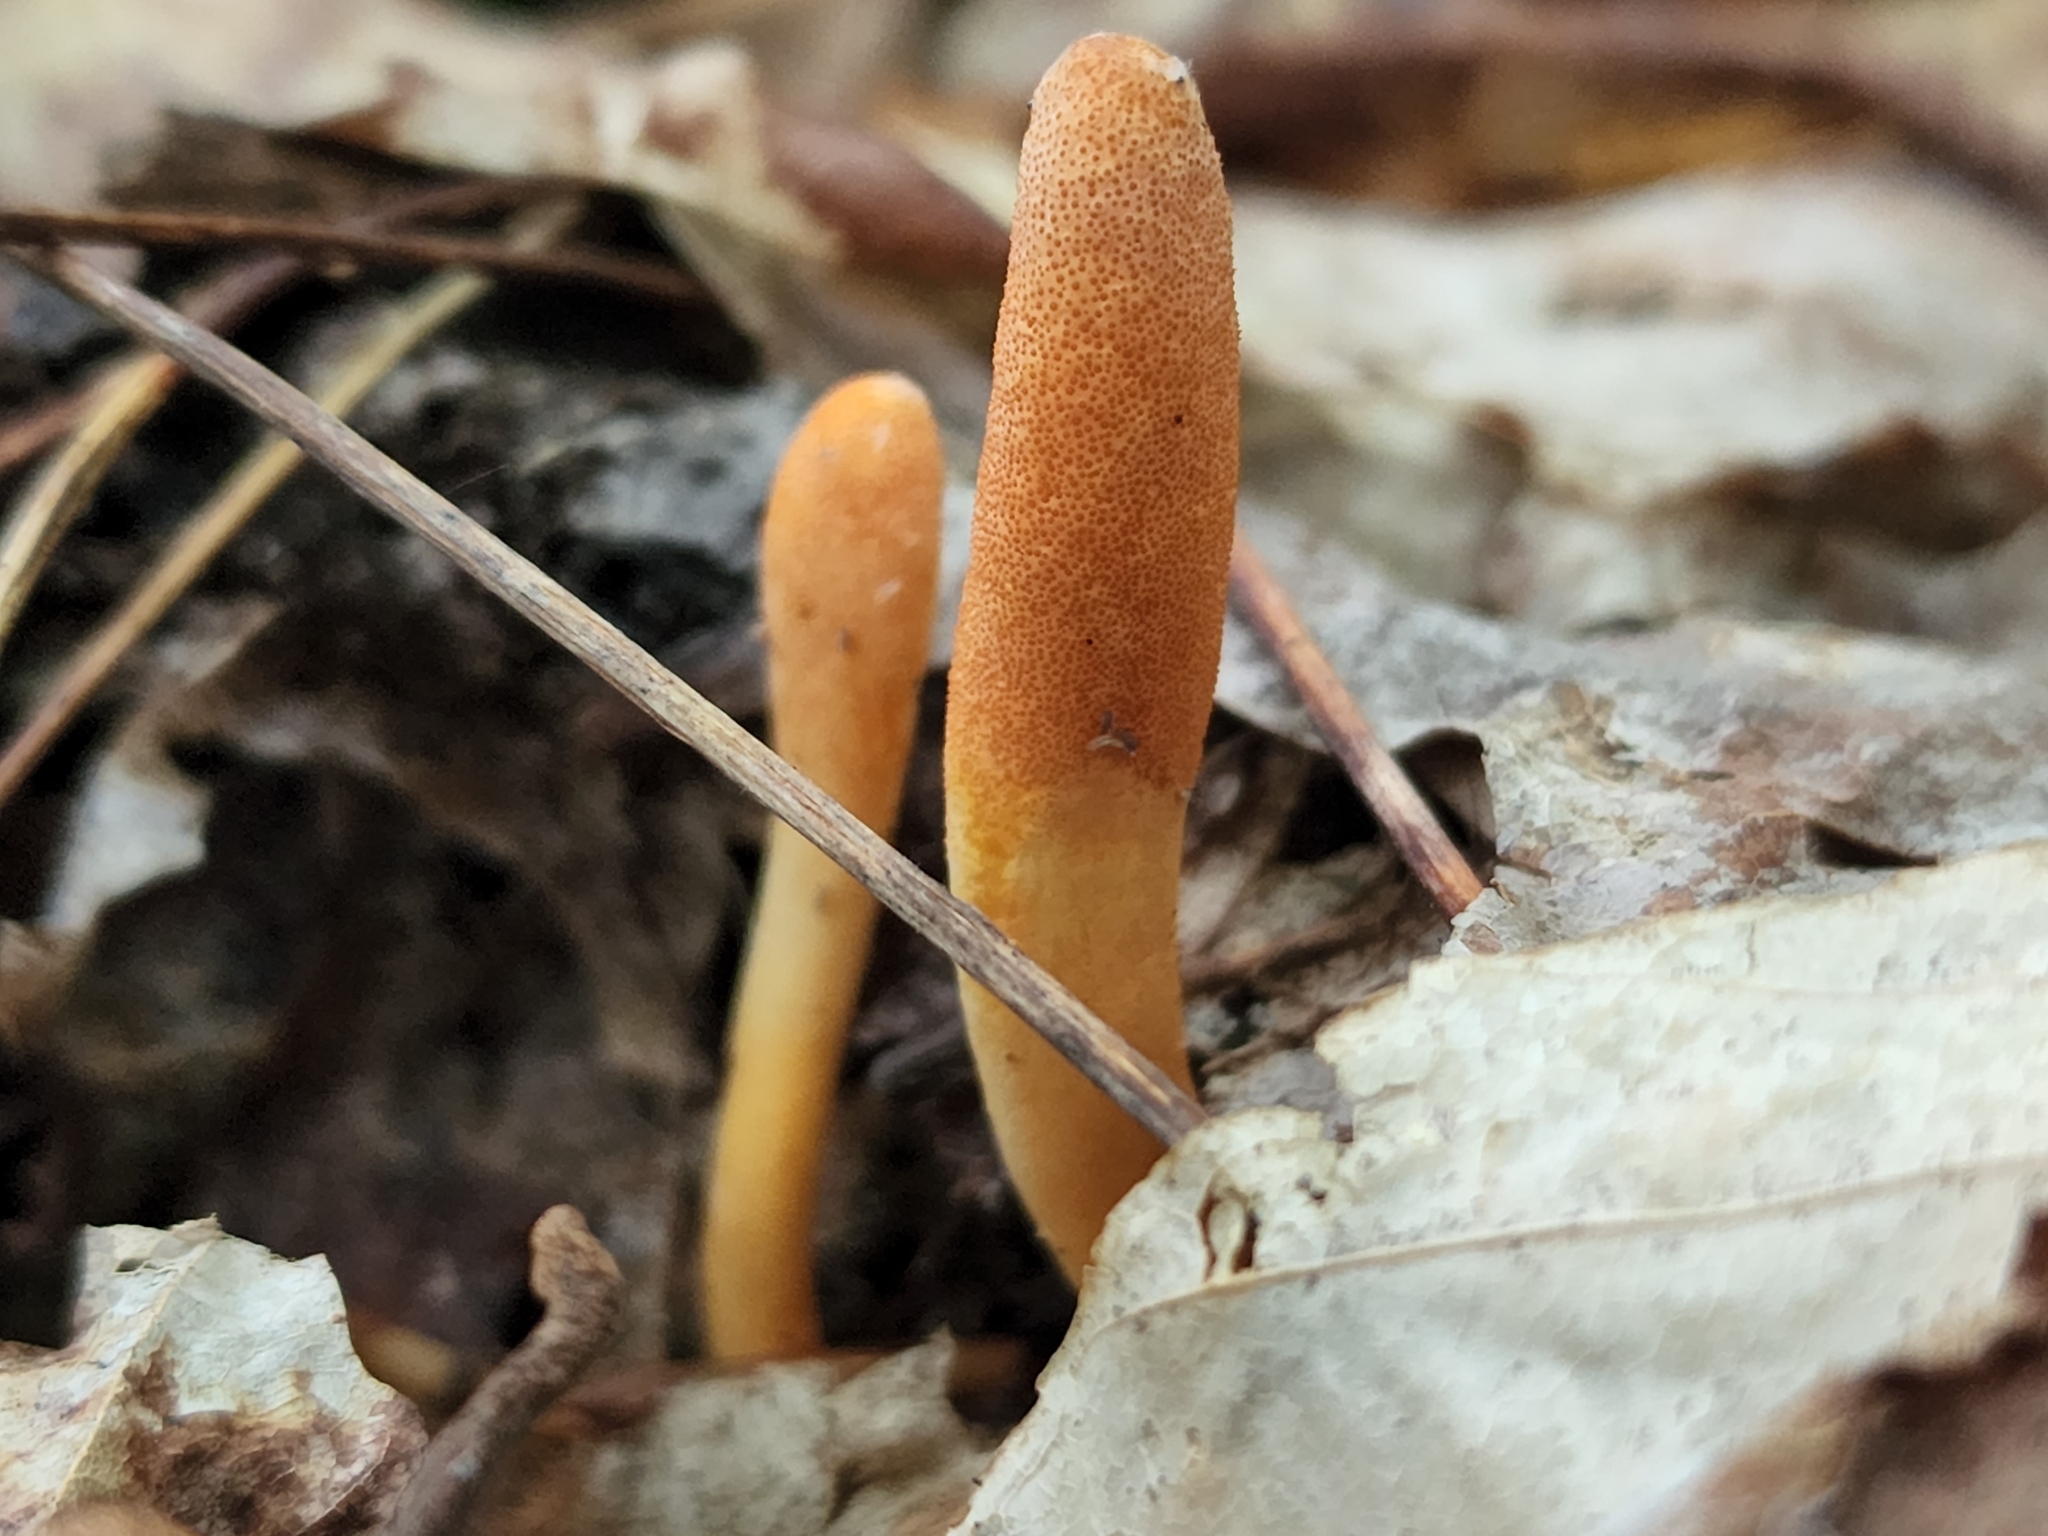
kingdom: Fungi
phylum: Ascomycota
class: Sordariomycetes
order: Hypocreales
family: Cordycipitaceae
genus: Cordyceps
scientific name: Cordyceps militaris
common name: Scarlet caterpillar fungus
